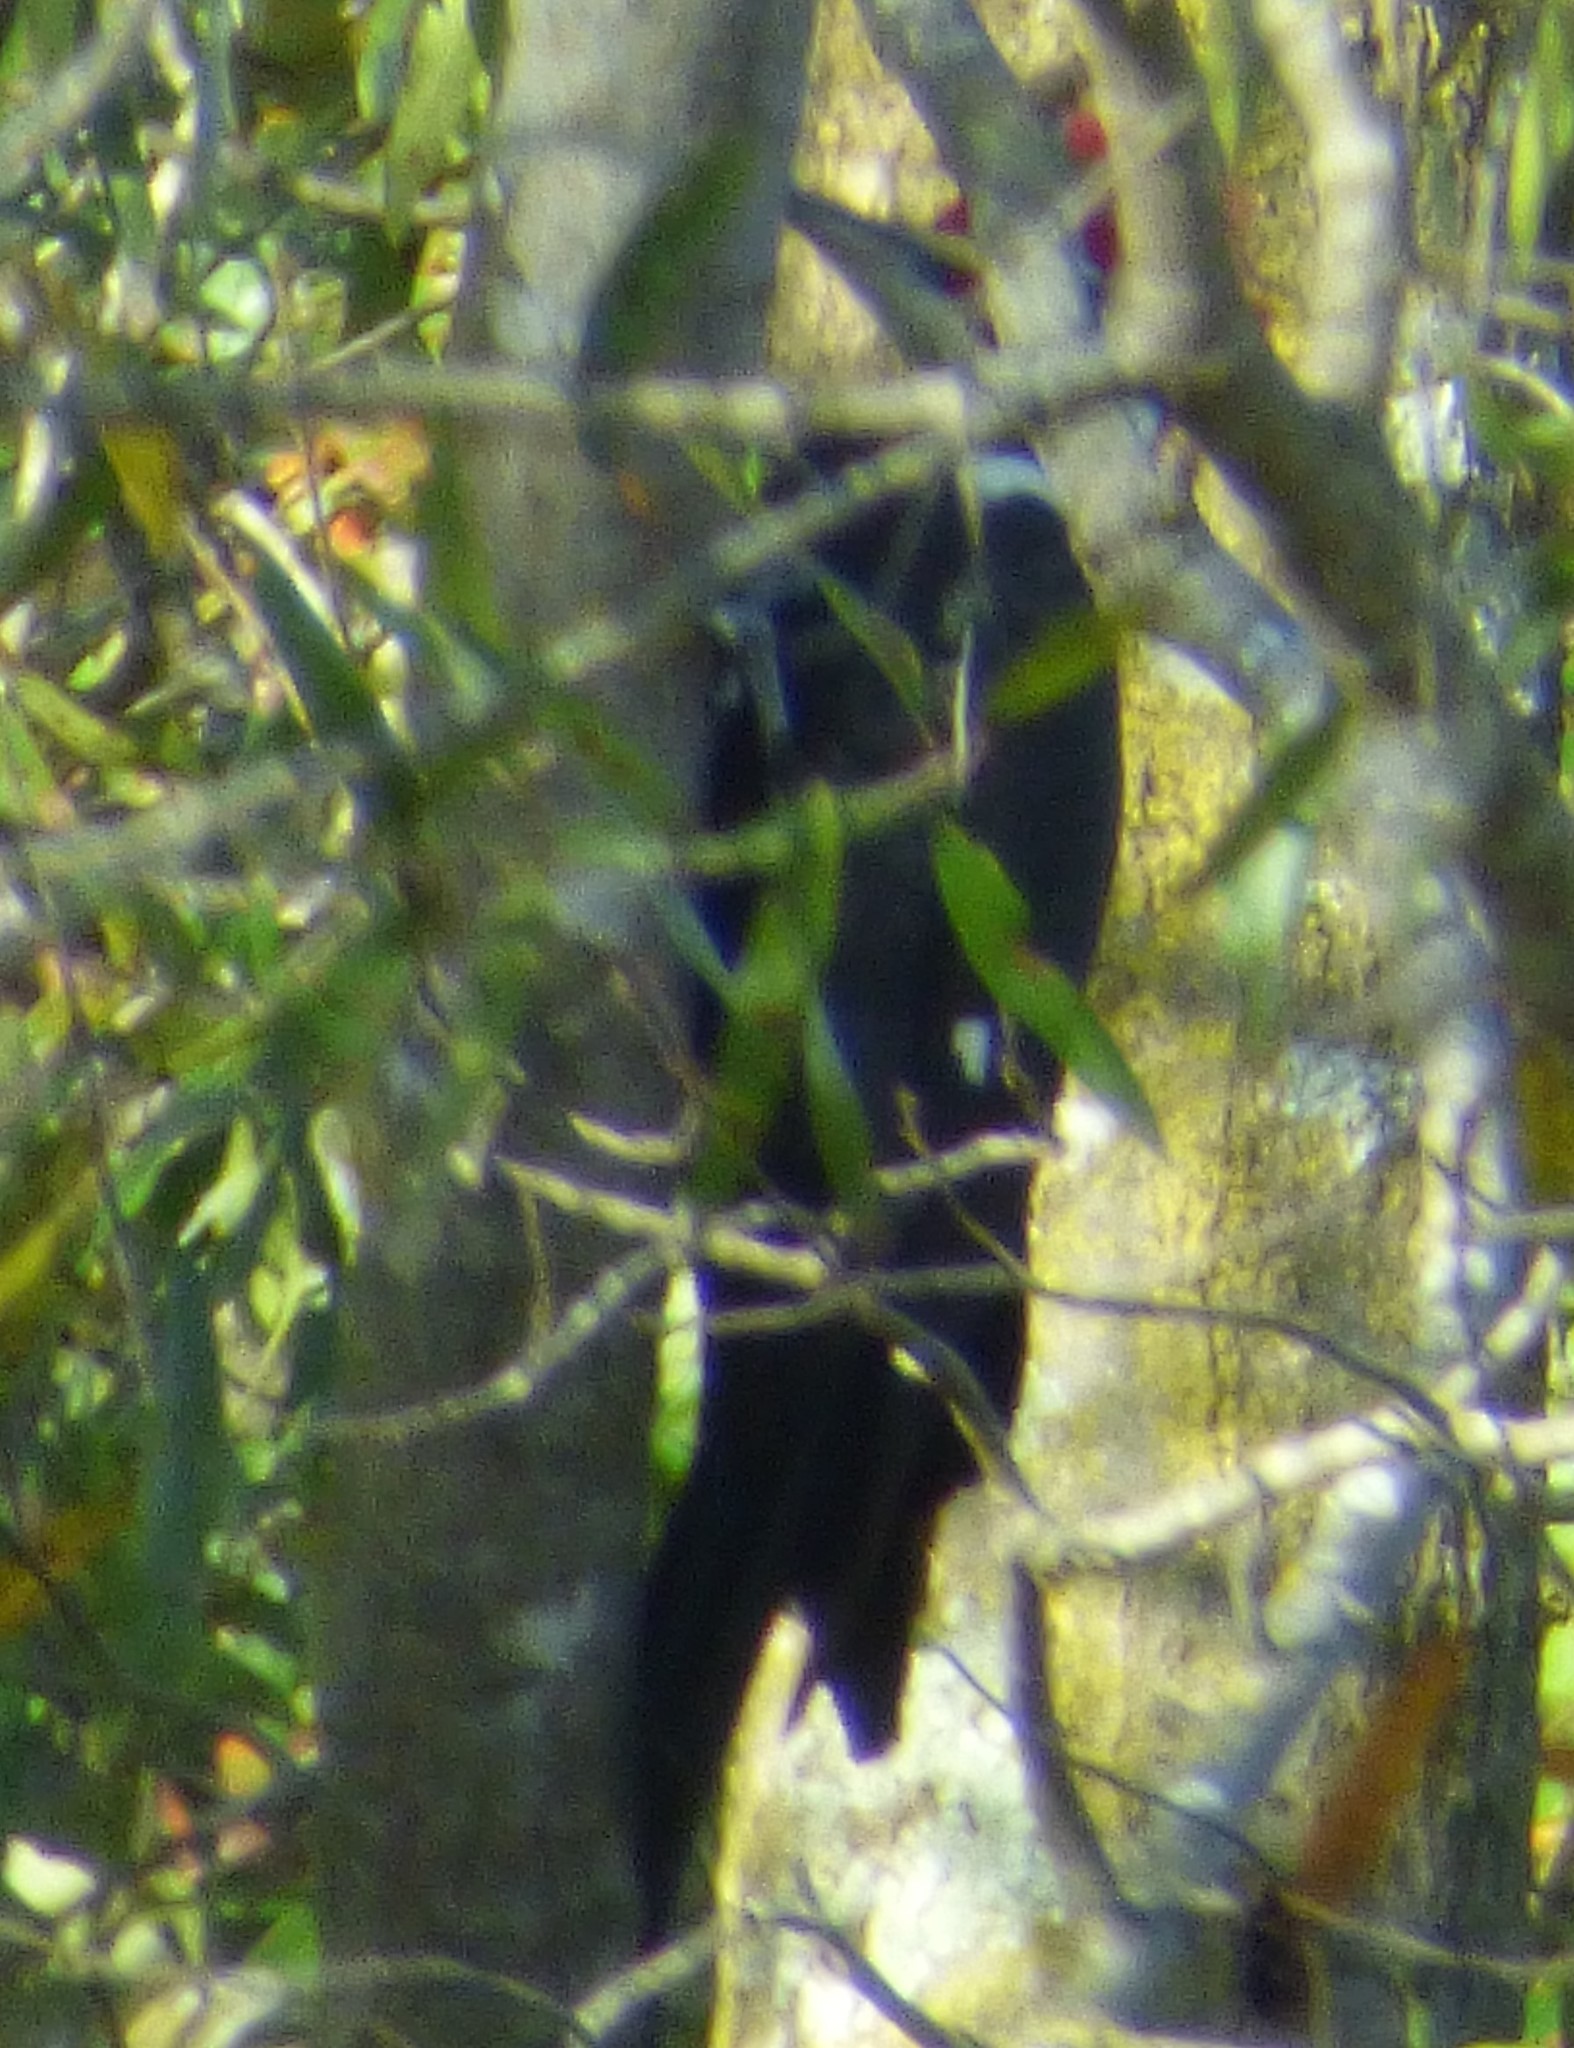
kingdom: Animalia
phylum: Chordata
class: Aves
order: Piciformes
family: Picidae
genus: Dryocopus
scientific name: Dryocopus pileatus
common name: Pileated woodpecker
